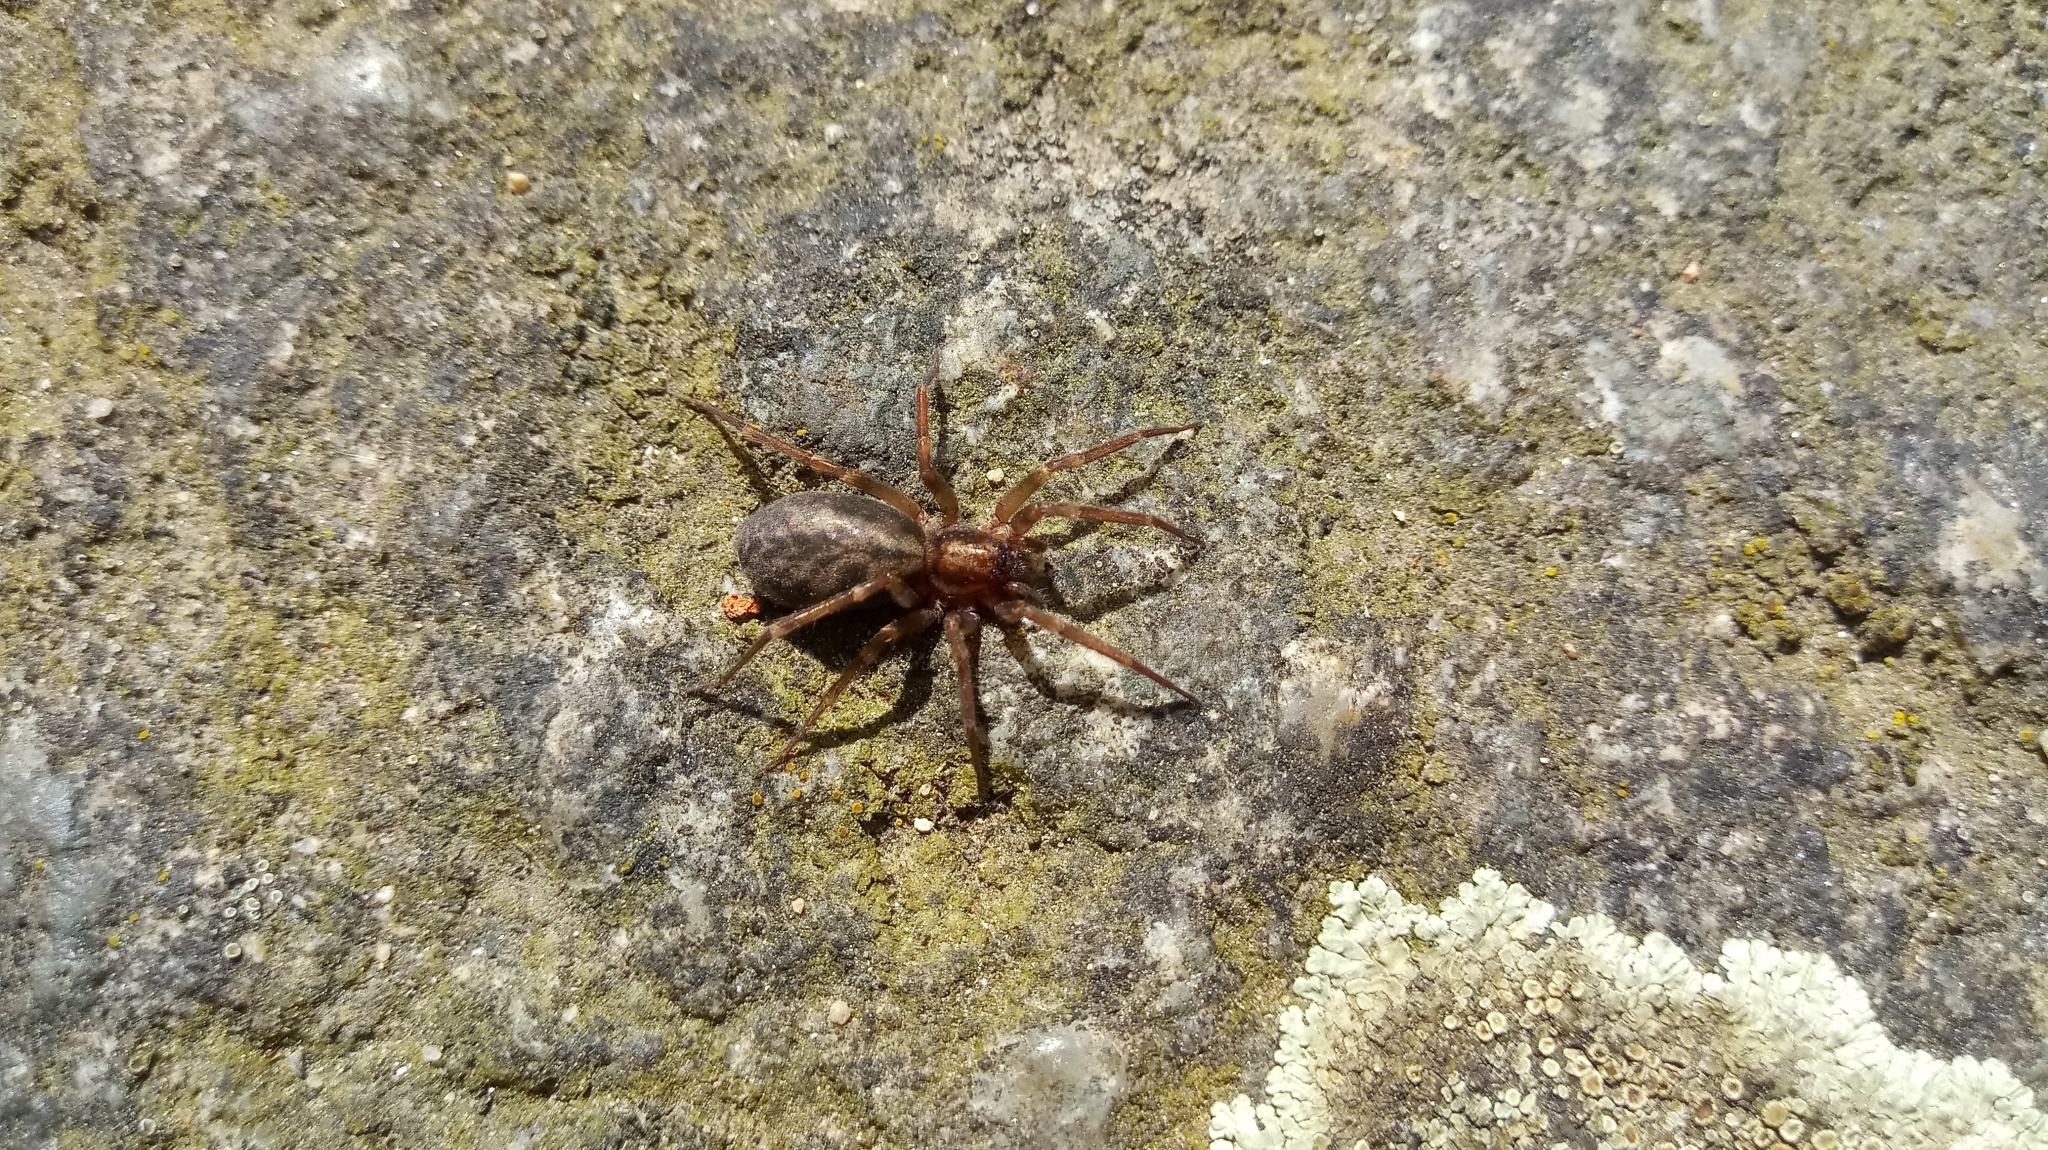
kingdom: Animalia
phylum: Arthropoda
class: Arachnida
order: Araneae
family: Liocranidae
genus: Liocranum
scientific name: Liocranum rupicola
